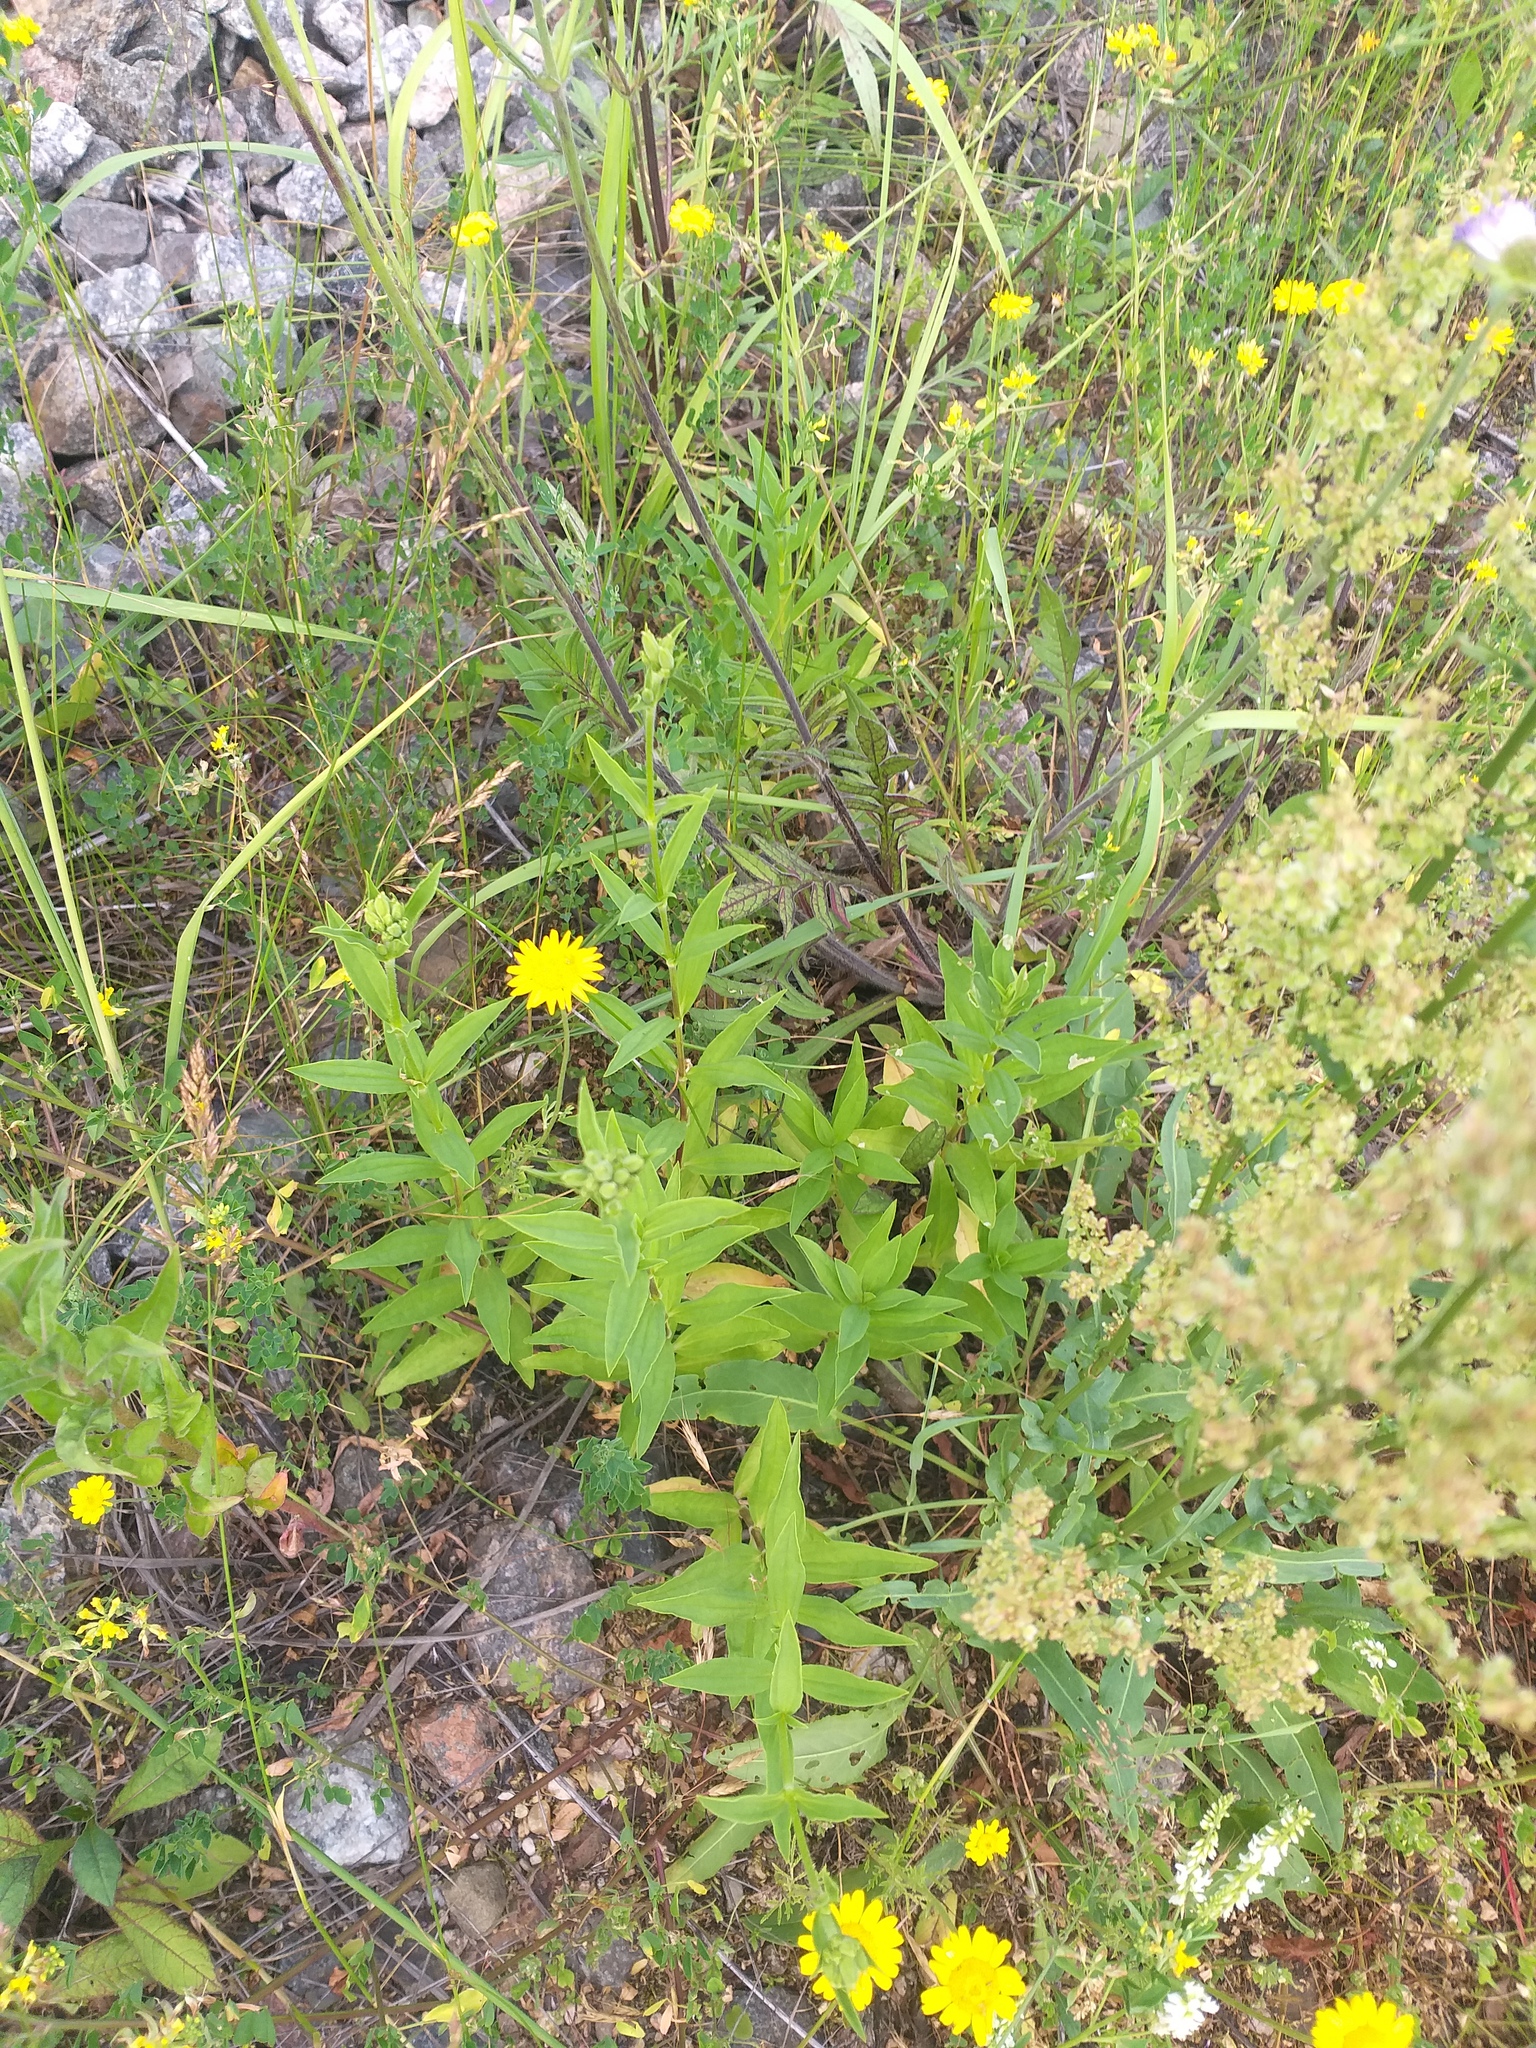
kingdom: Plantae
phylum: Tracheophyta
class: Magnoliopsida
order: Caryophyllales
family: Caryophyllaceae
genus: Saponaria
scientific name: Saponaria officinalis
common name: Soapwort
